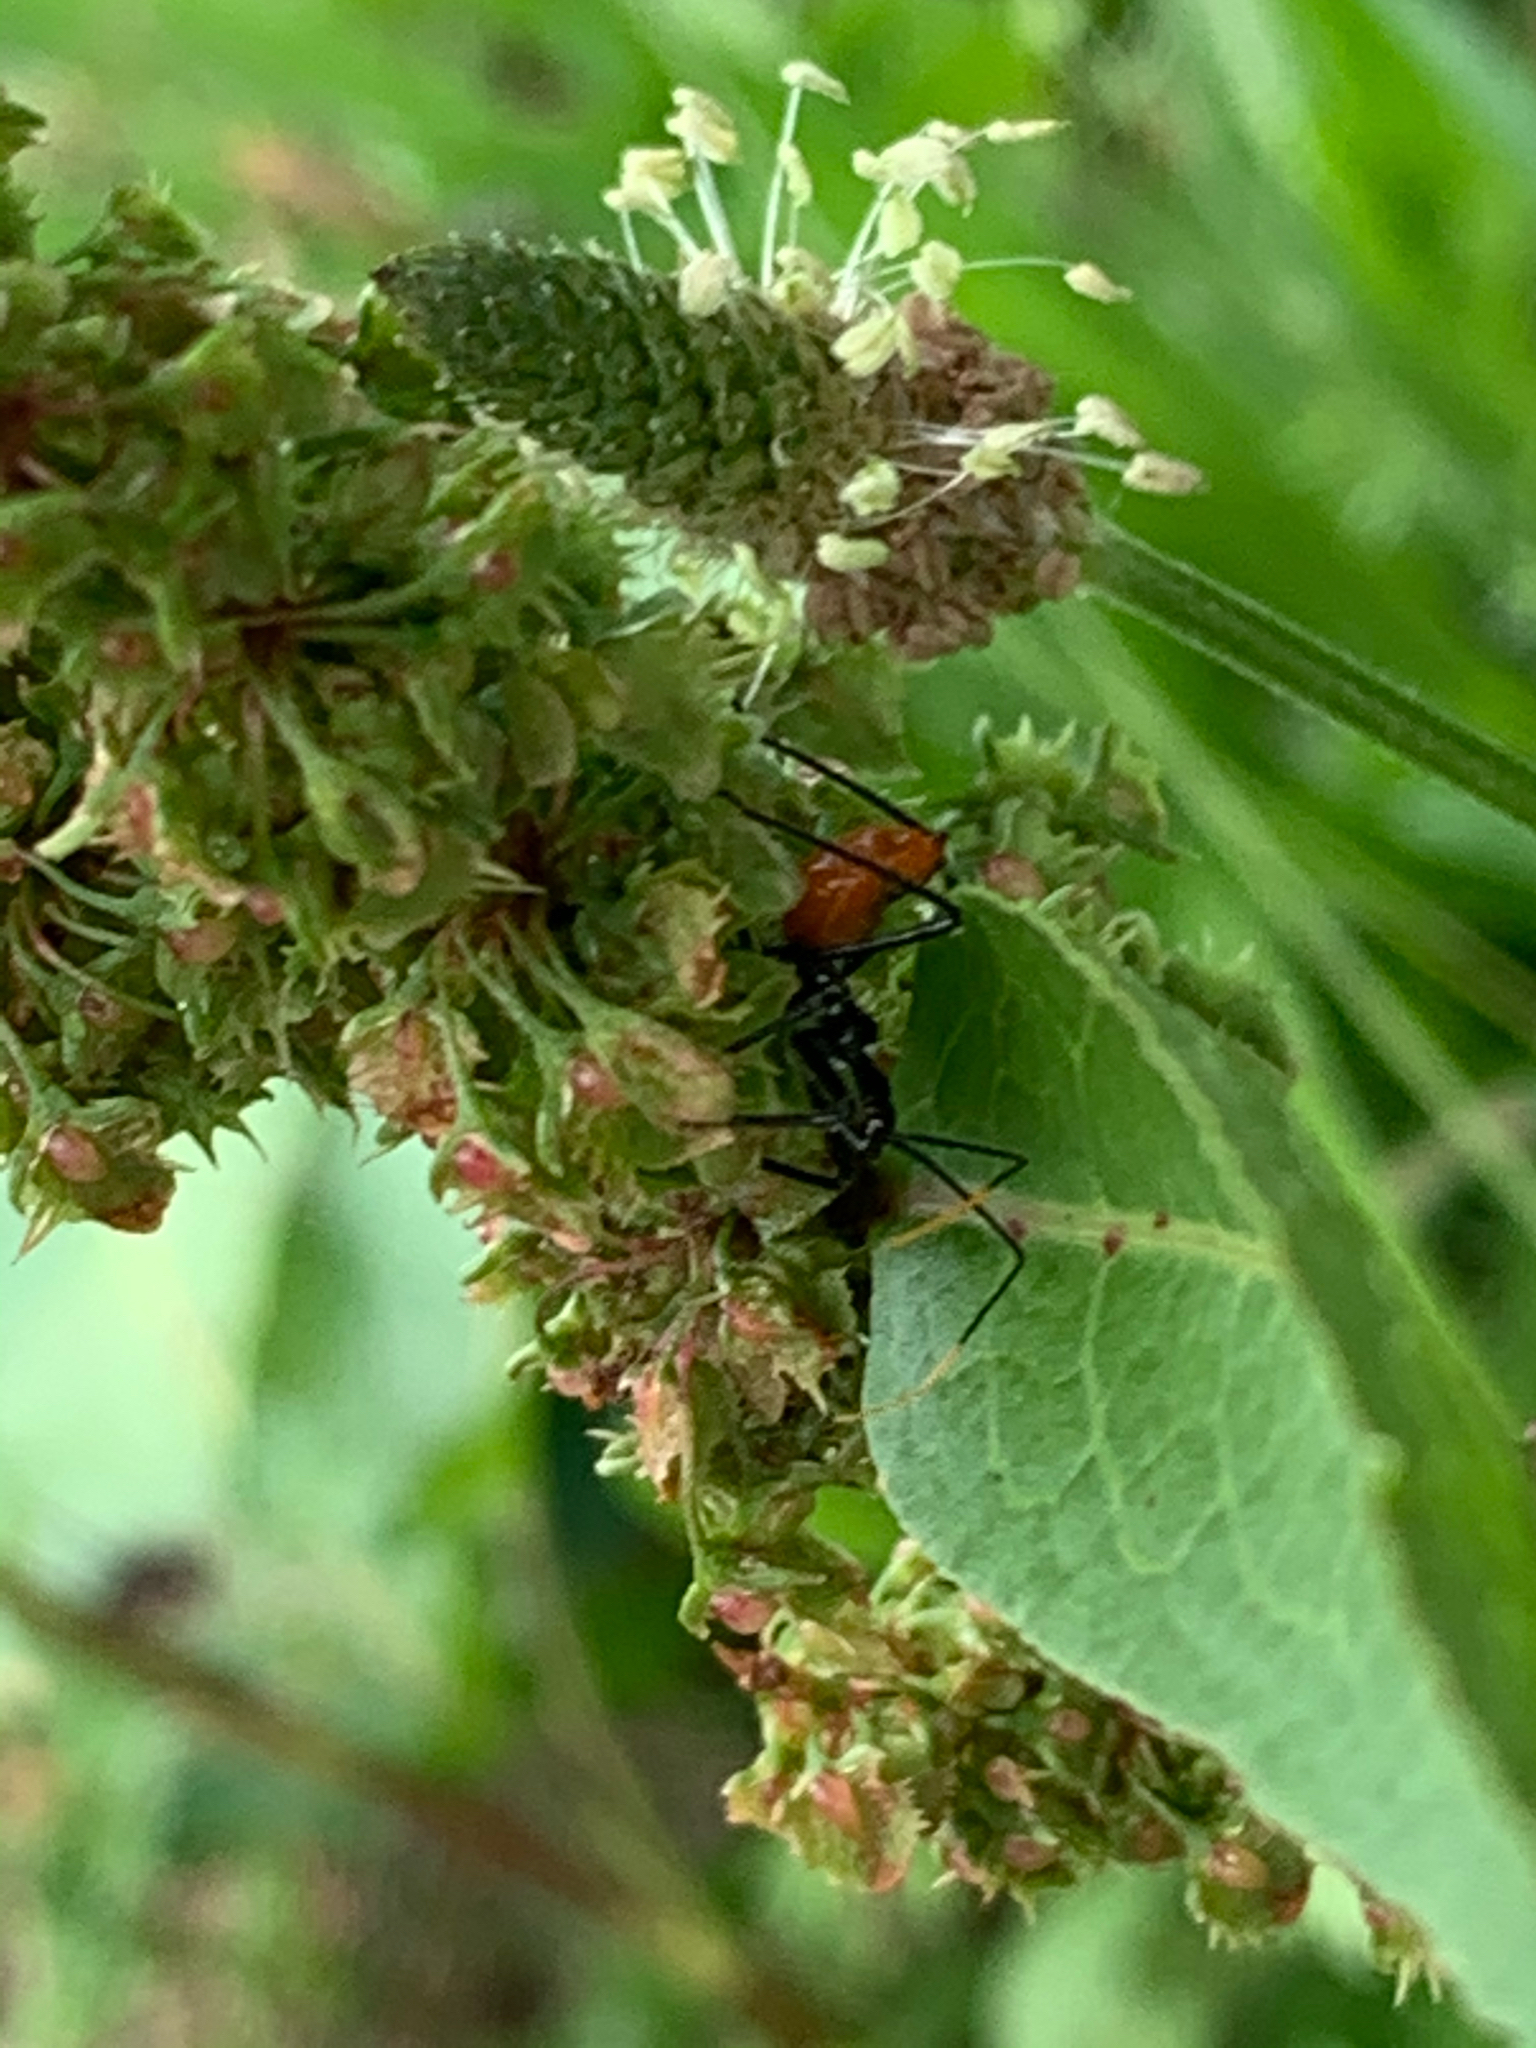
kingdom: Animalia
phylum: Arthropoda
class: Insecta
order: Hemiptera
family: Reduviidae
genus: Arilus
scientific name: Arilus cristatus
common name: North american wheel bug
